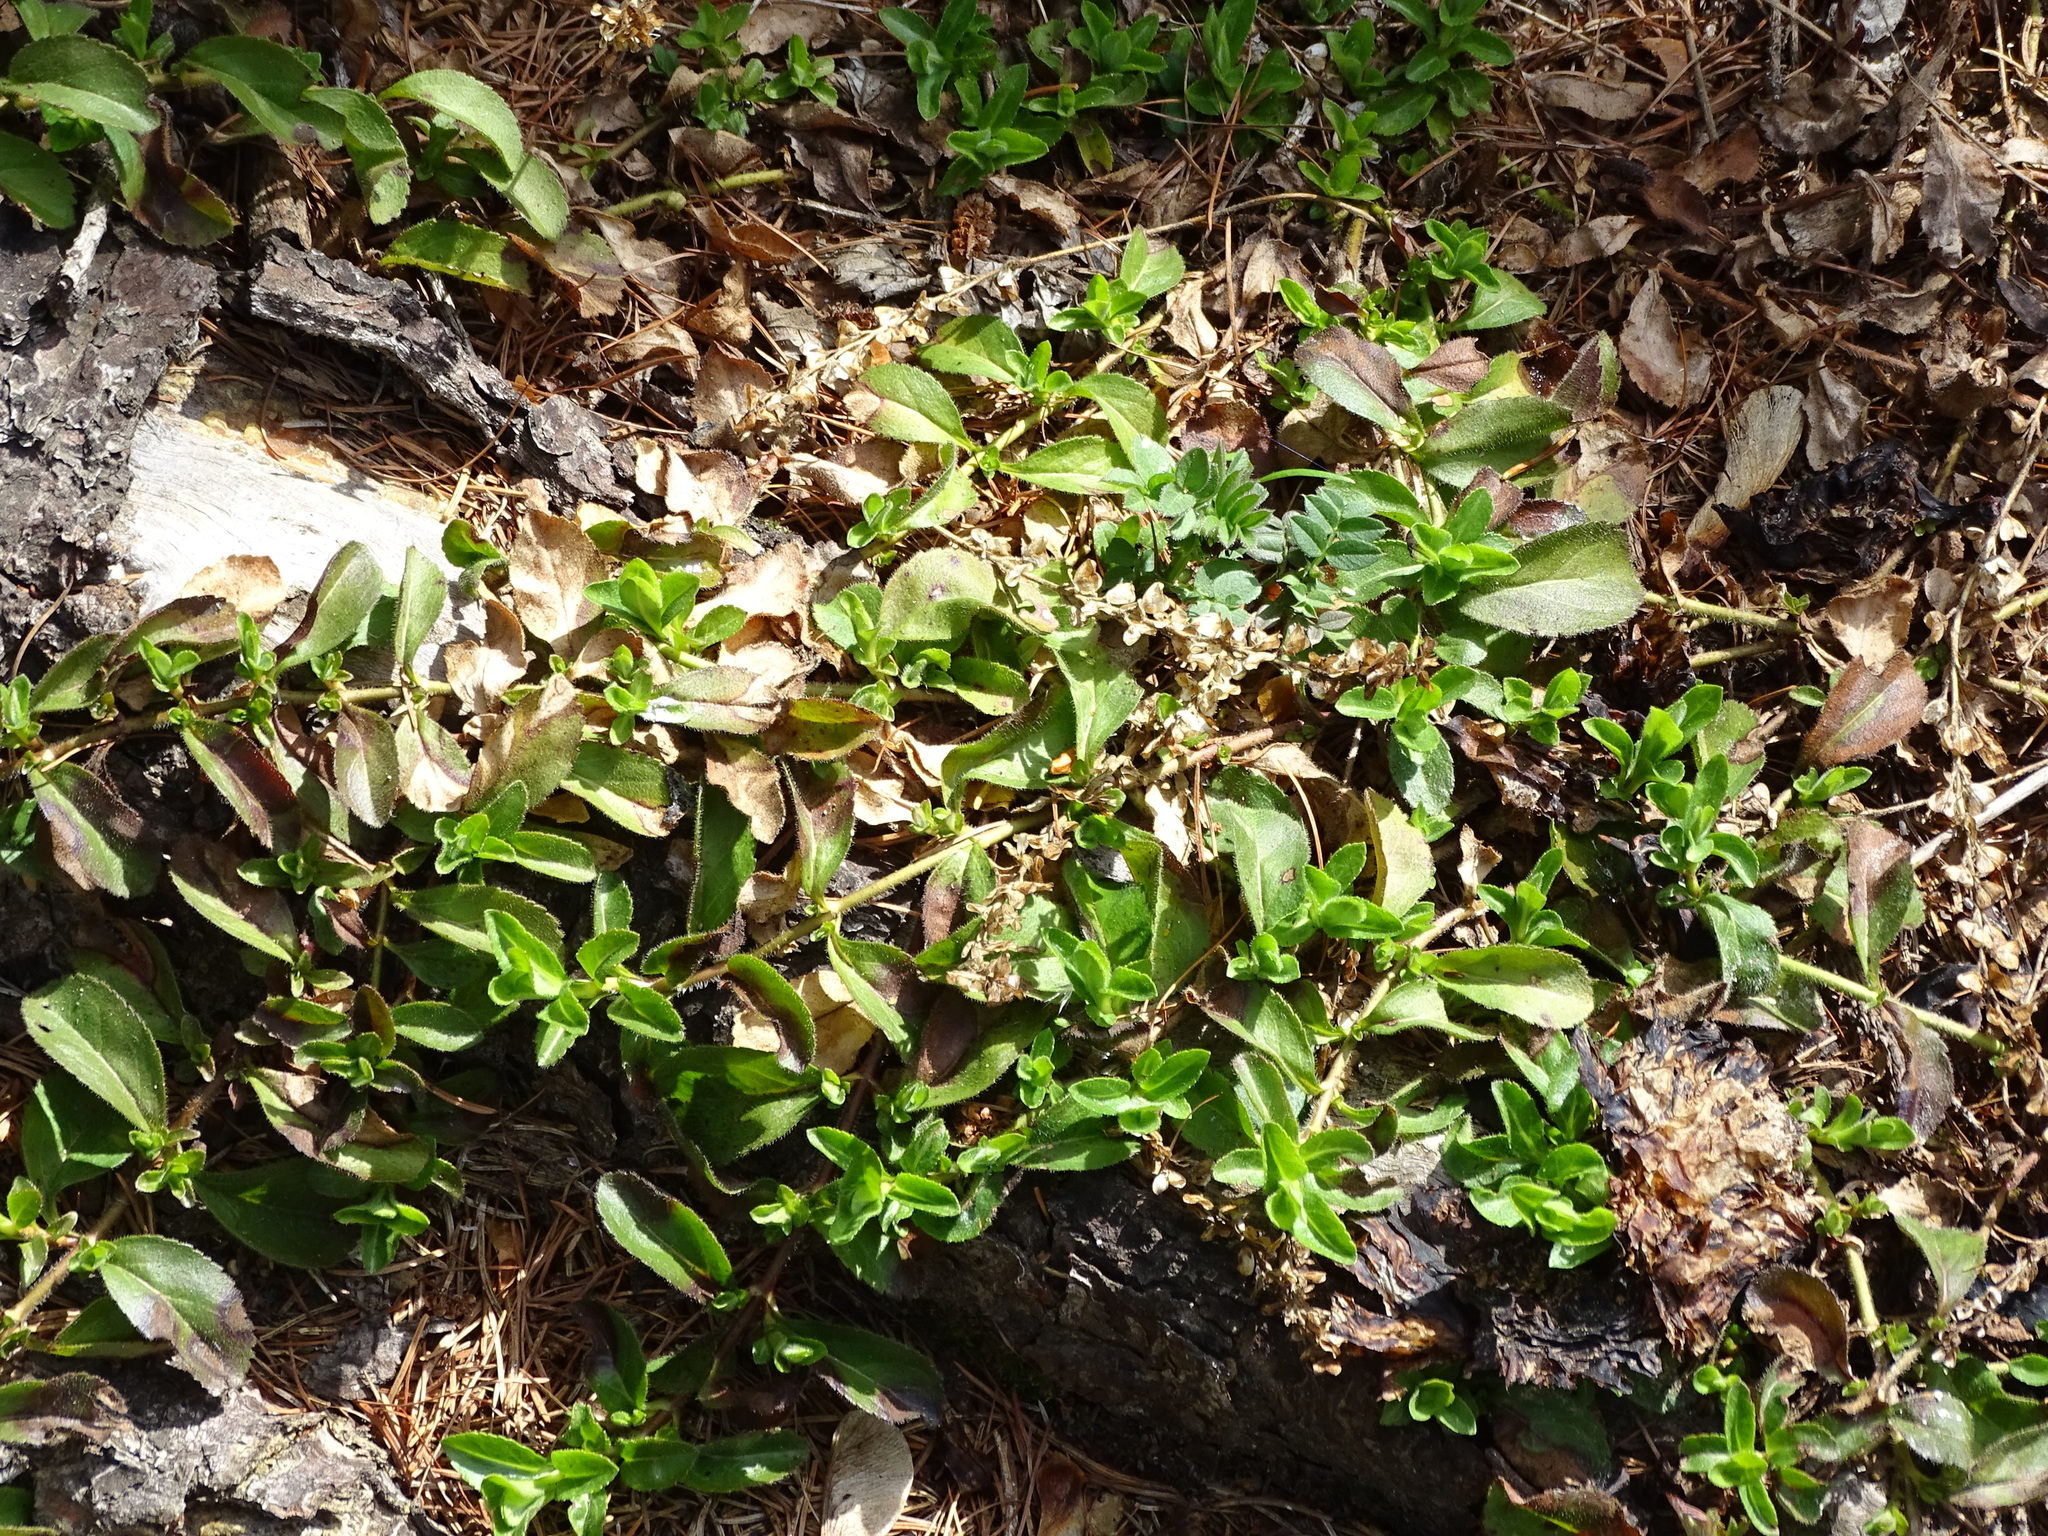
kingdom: Plantae
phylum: Tracheophyta
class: Magnoliopsida
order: Lamiales
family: Plantaginaceae
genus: Veronica
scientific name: Veronica officinalis
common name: Common speedwell
